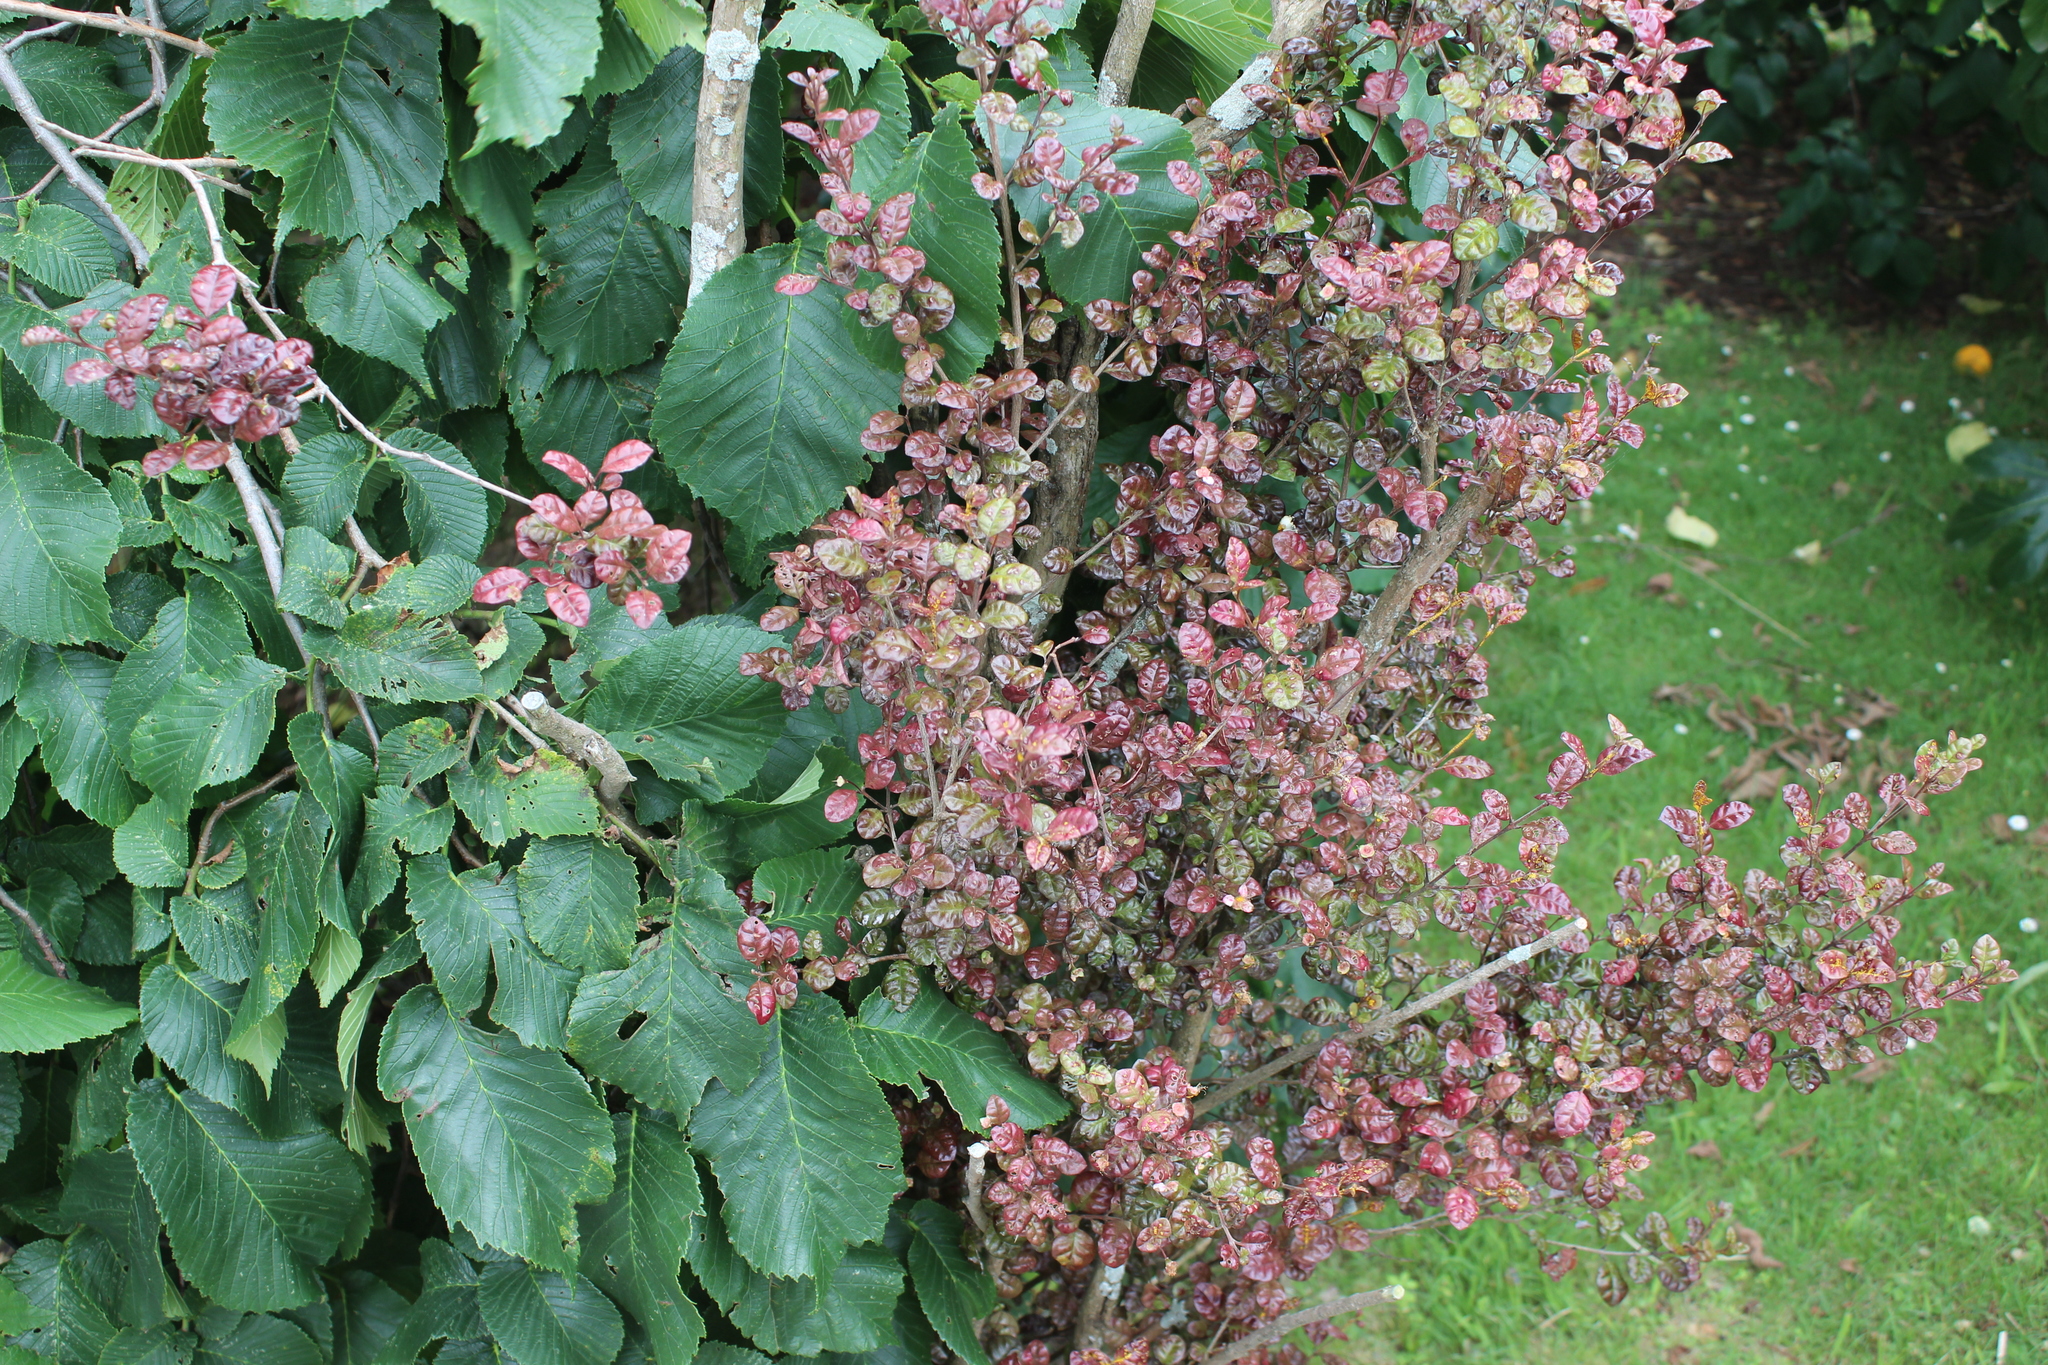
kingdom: Fungi
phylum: Basidiomycota
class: Pucciniomycetes
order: Pucciniales
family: Sphaerophragmiaceae
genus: Austropuccinia
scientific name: Austropuccinia psidii
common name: Myrtle rust
